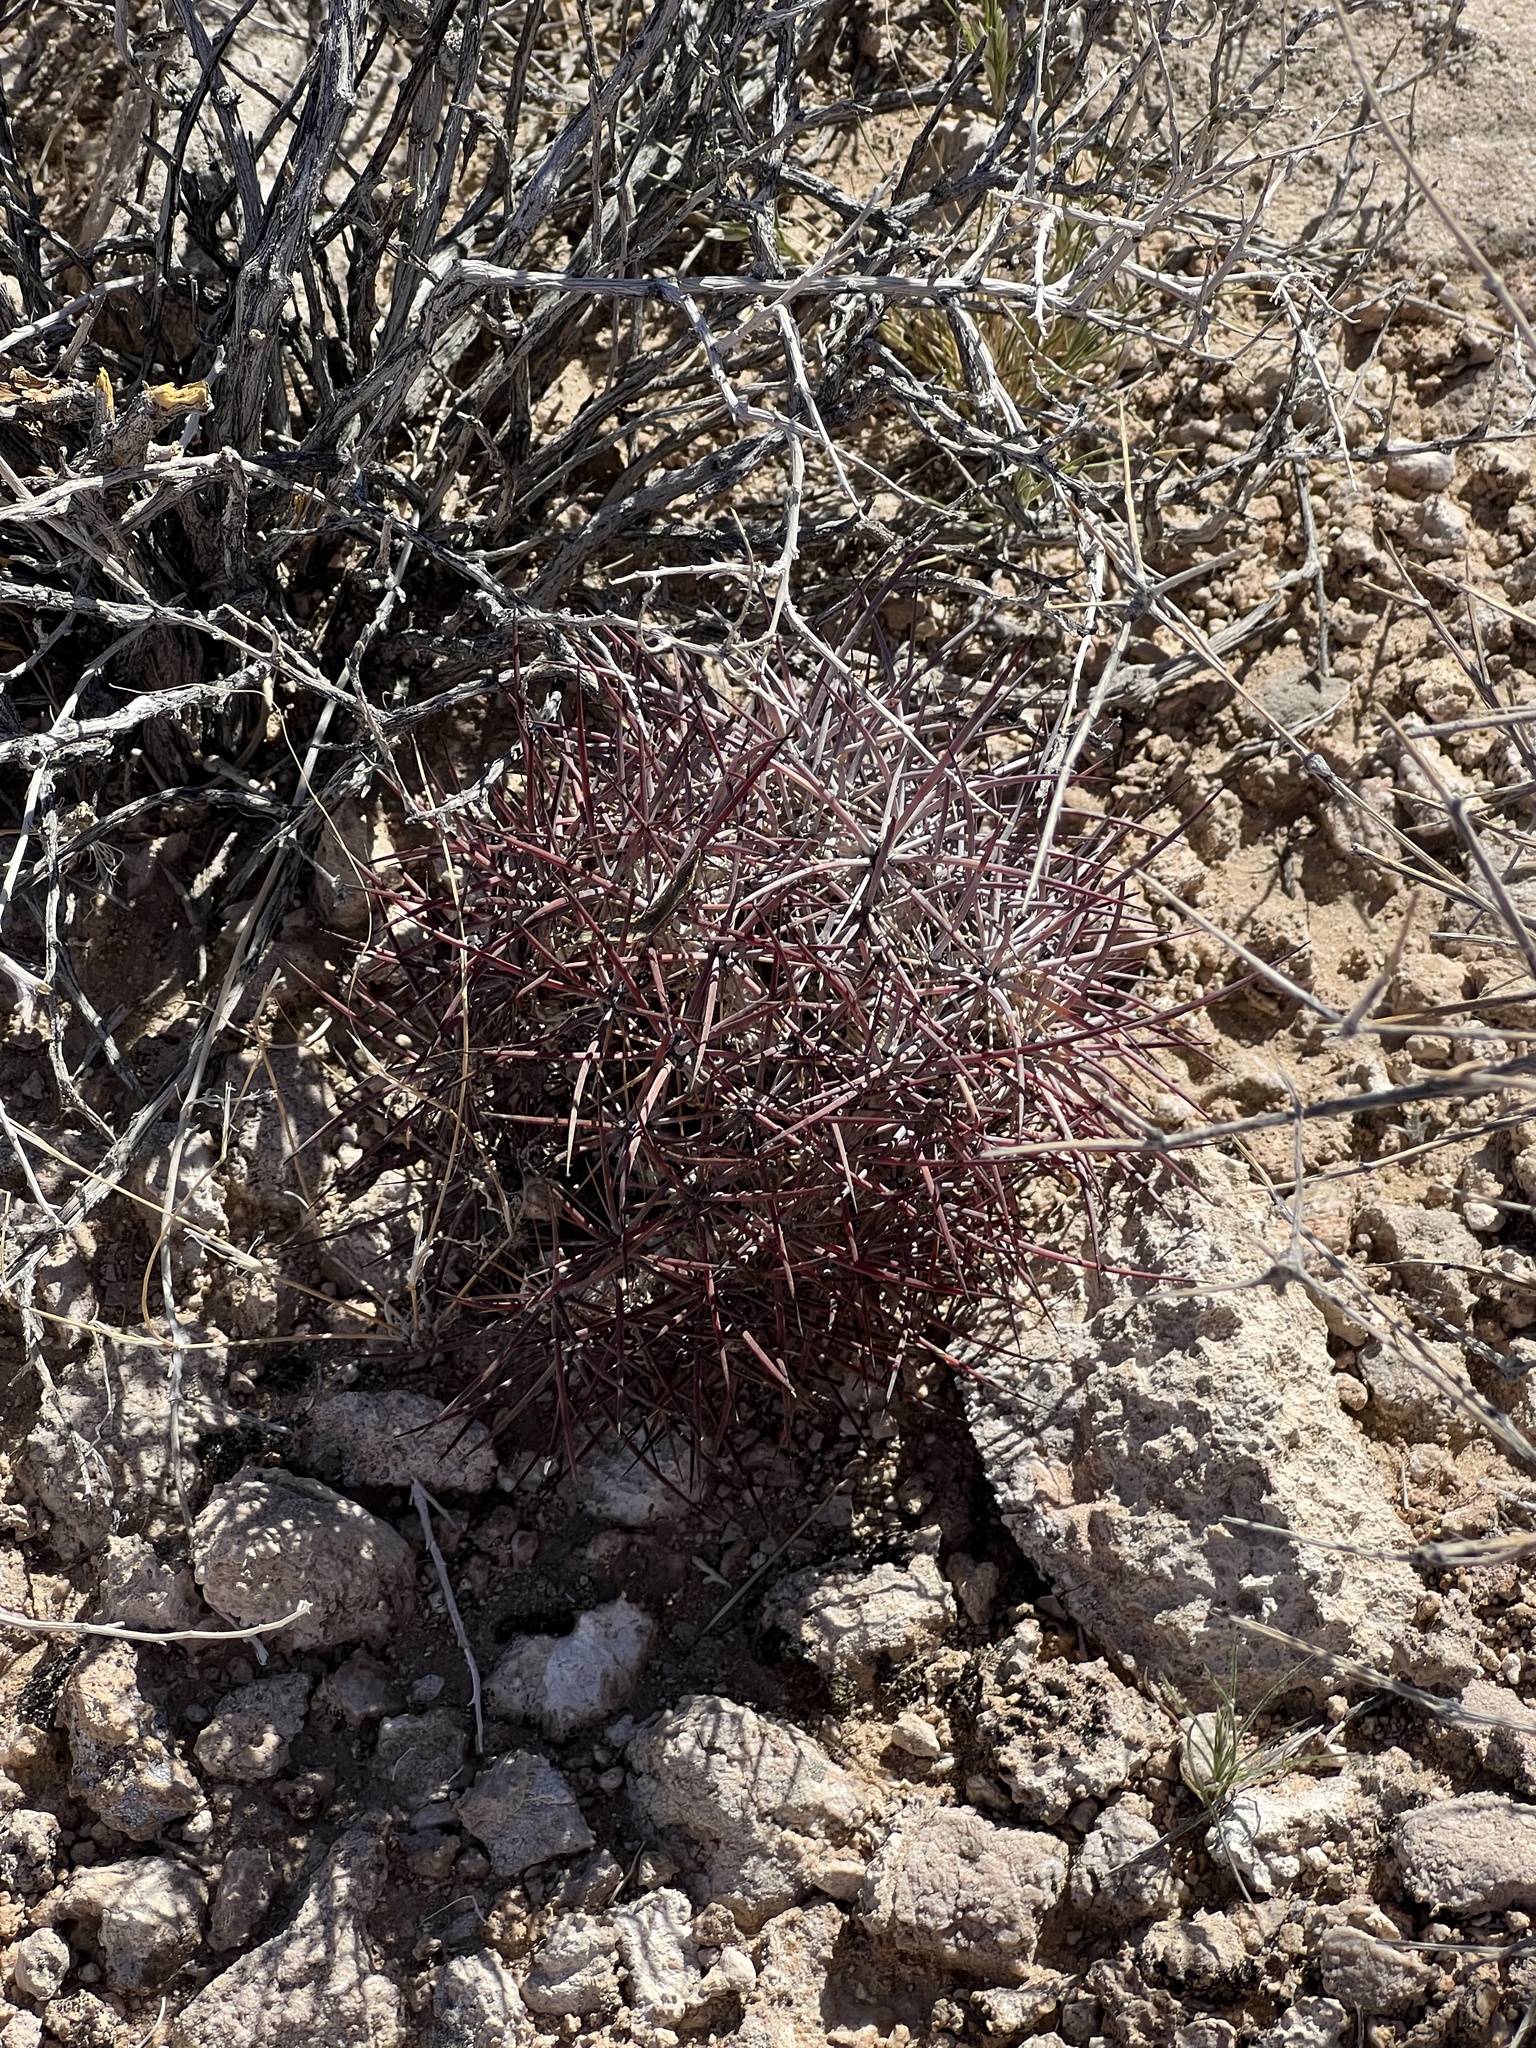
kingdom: Plantae
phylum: Tracheophyta
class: Magnoliopsida
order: Caryophyllales
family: Cactaceae
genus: Sclerocactus
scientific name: Sclerocactus johnsonii
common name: Eight-spine fishhook cactus
